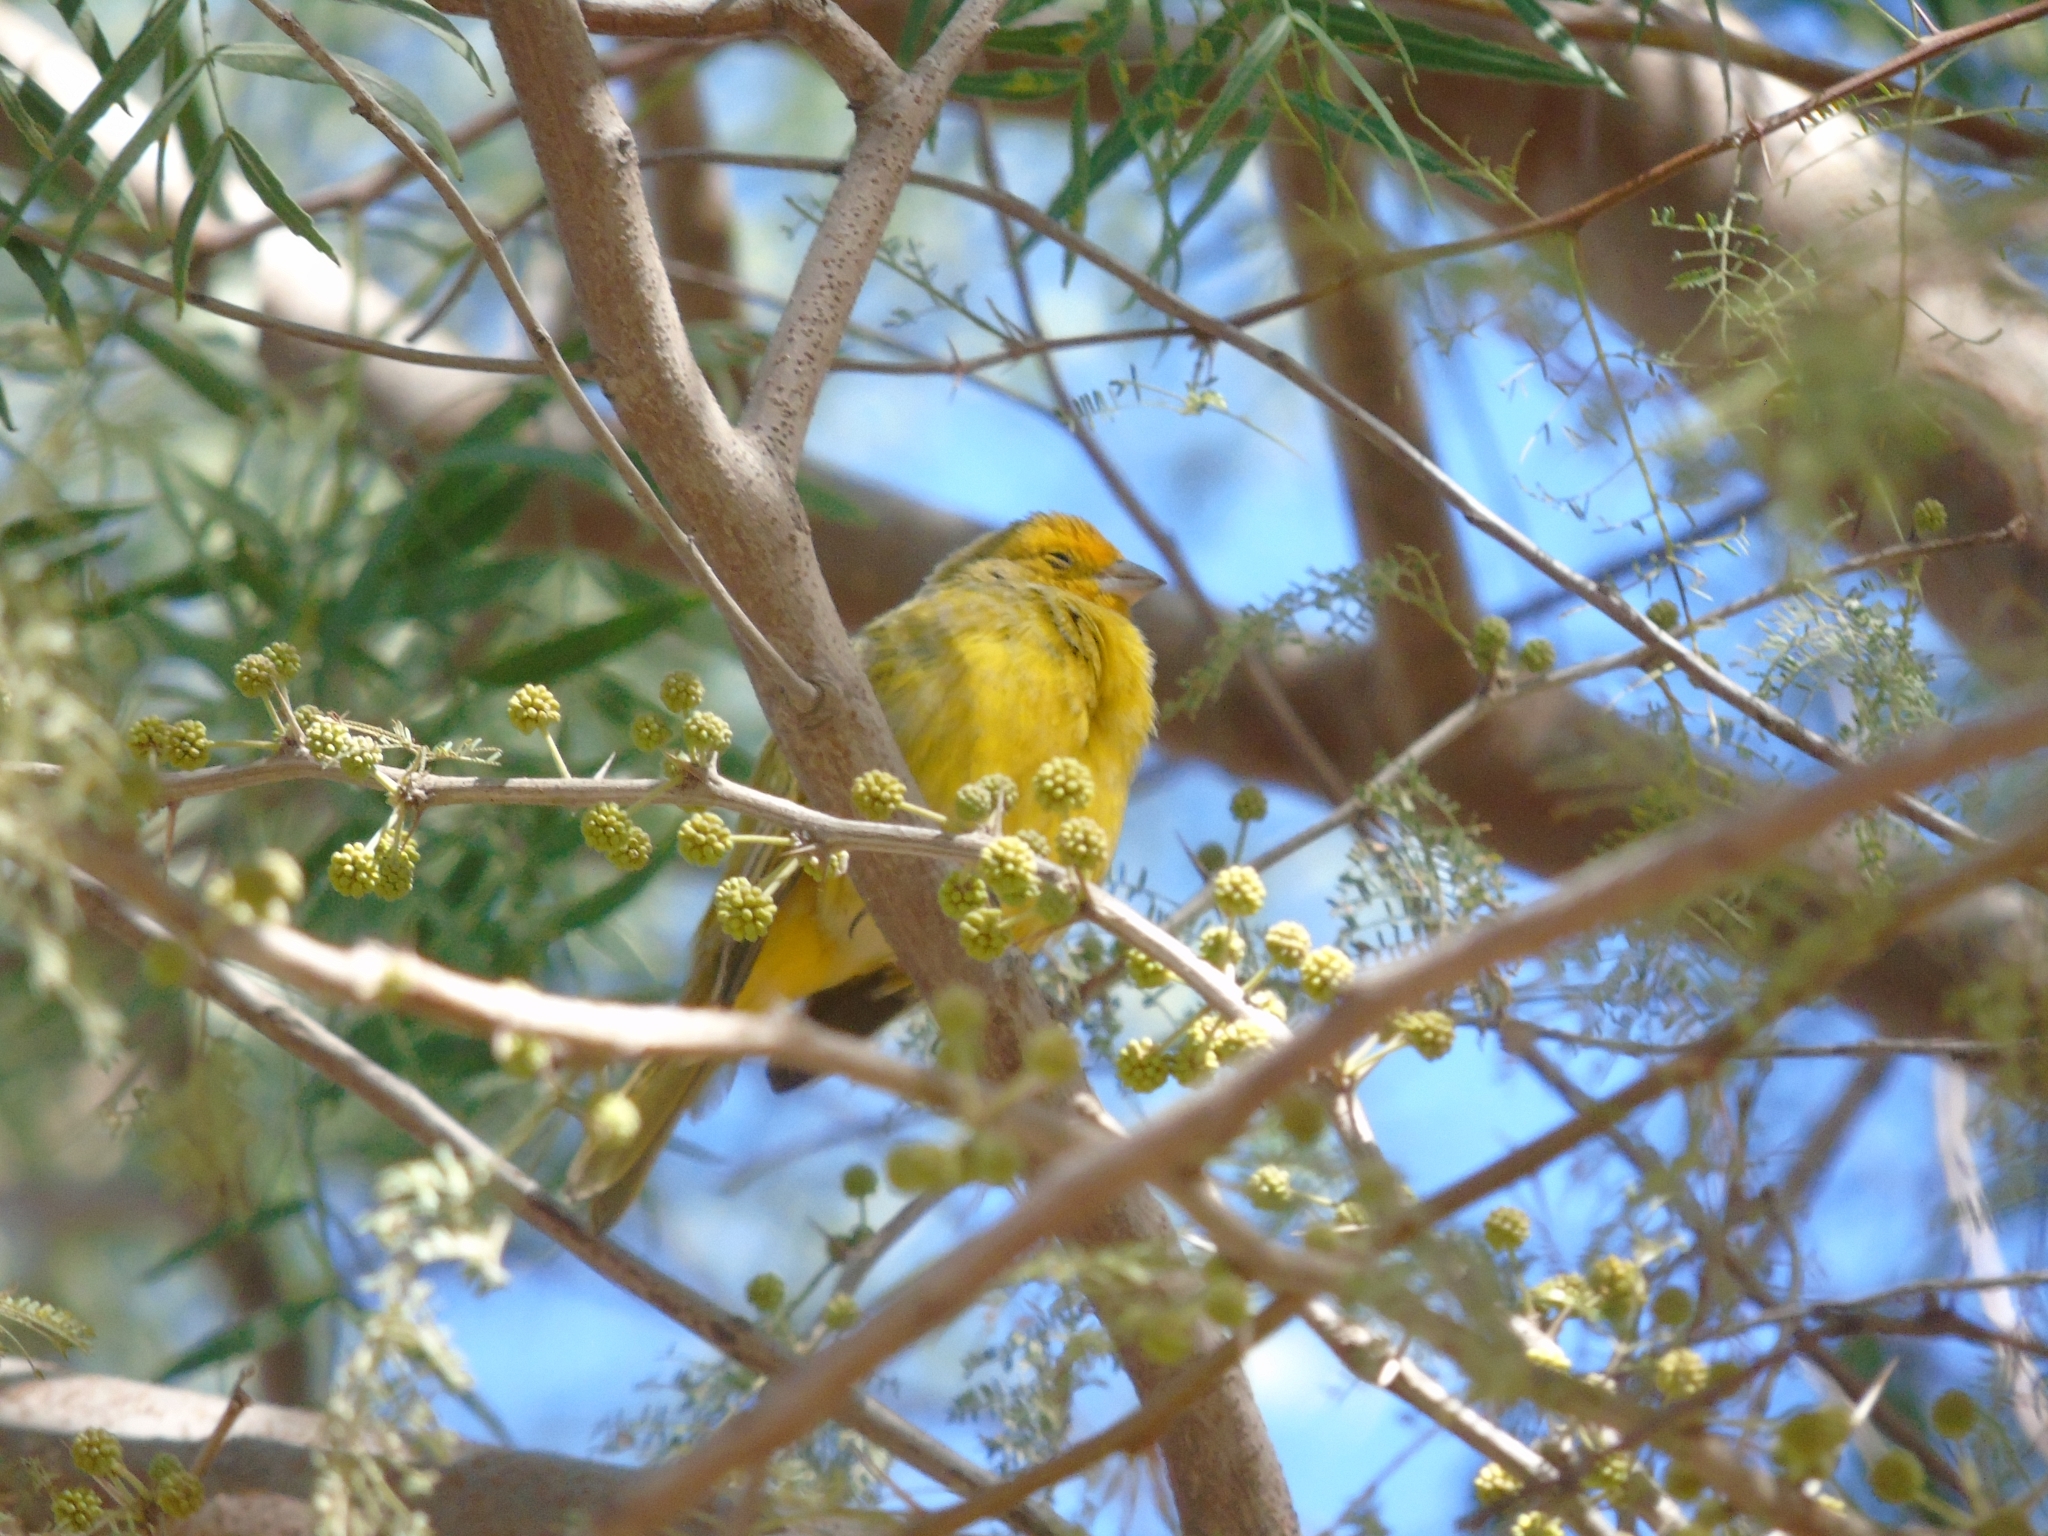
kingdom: Animalia
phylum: Chordata
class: Aves
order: Passeriformes
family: Thraupidae
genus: Sicalis
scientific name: Sicalis flaveola
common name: Saffron finch
